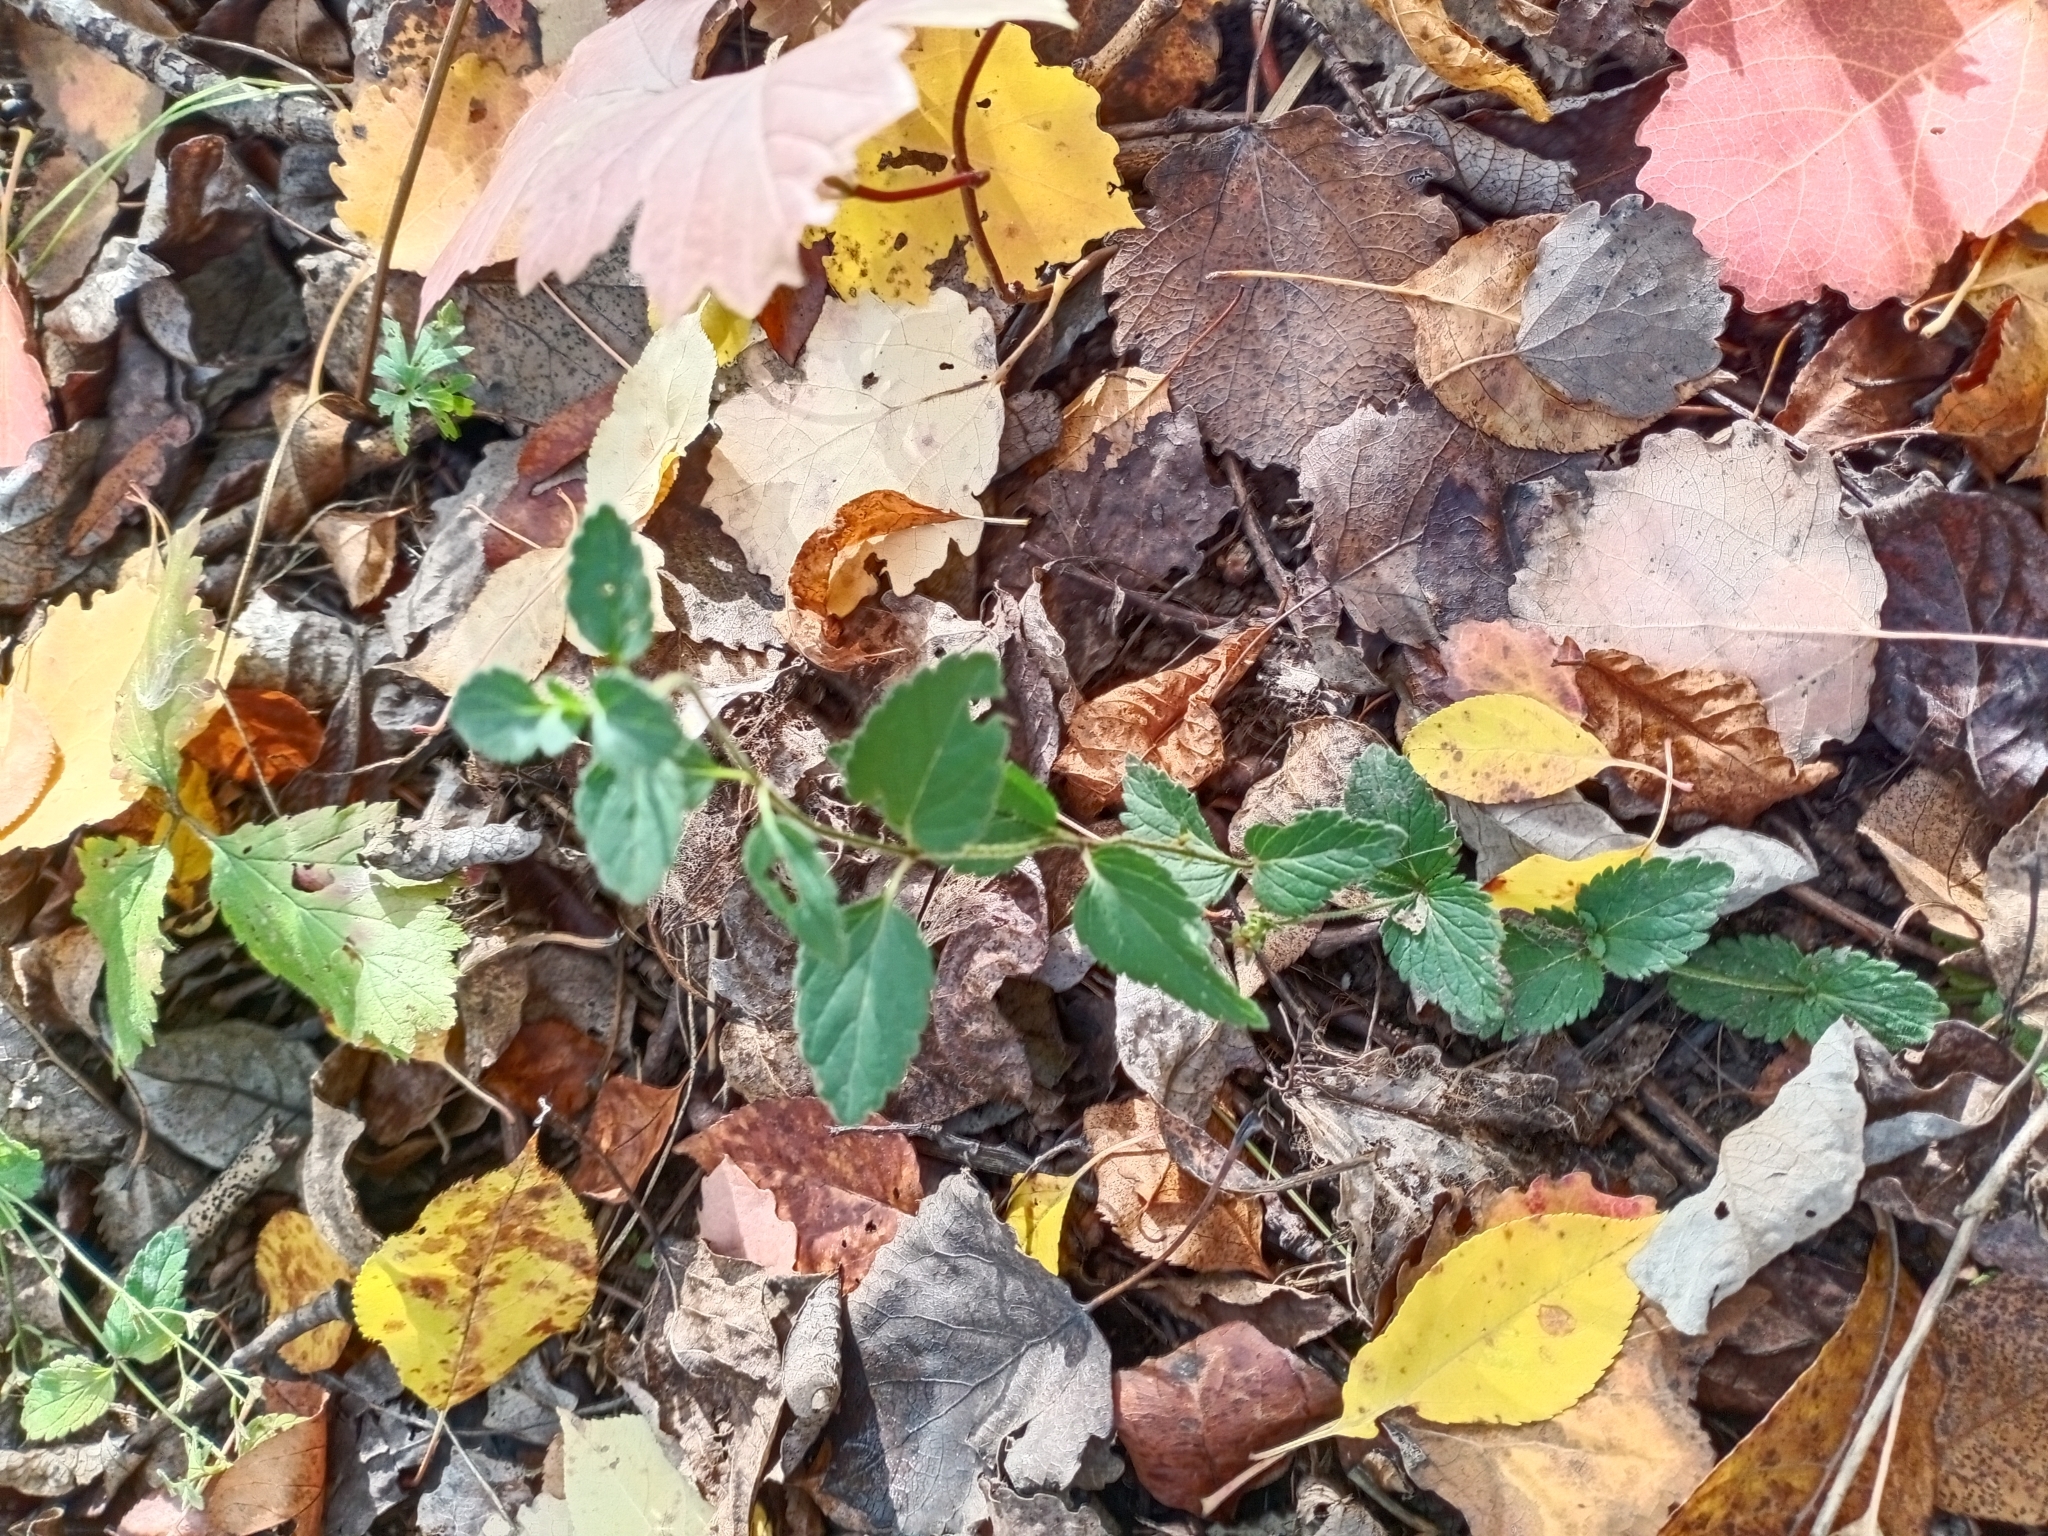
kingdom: Plantae
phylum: Tracheophyta
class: Magnoliopsida
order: Lamiales
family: Plantaginaceae
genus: Veronica
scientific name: Veronica chamaedrys
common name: Germander speedwell
